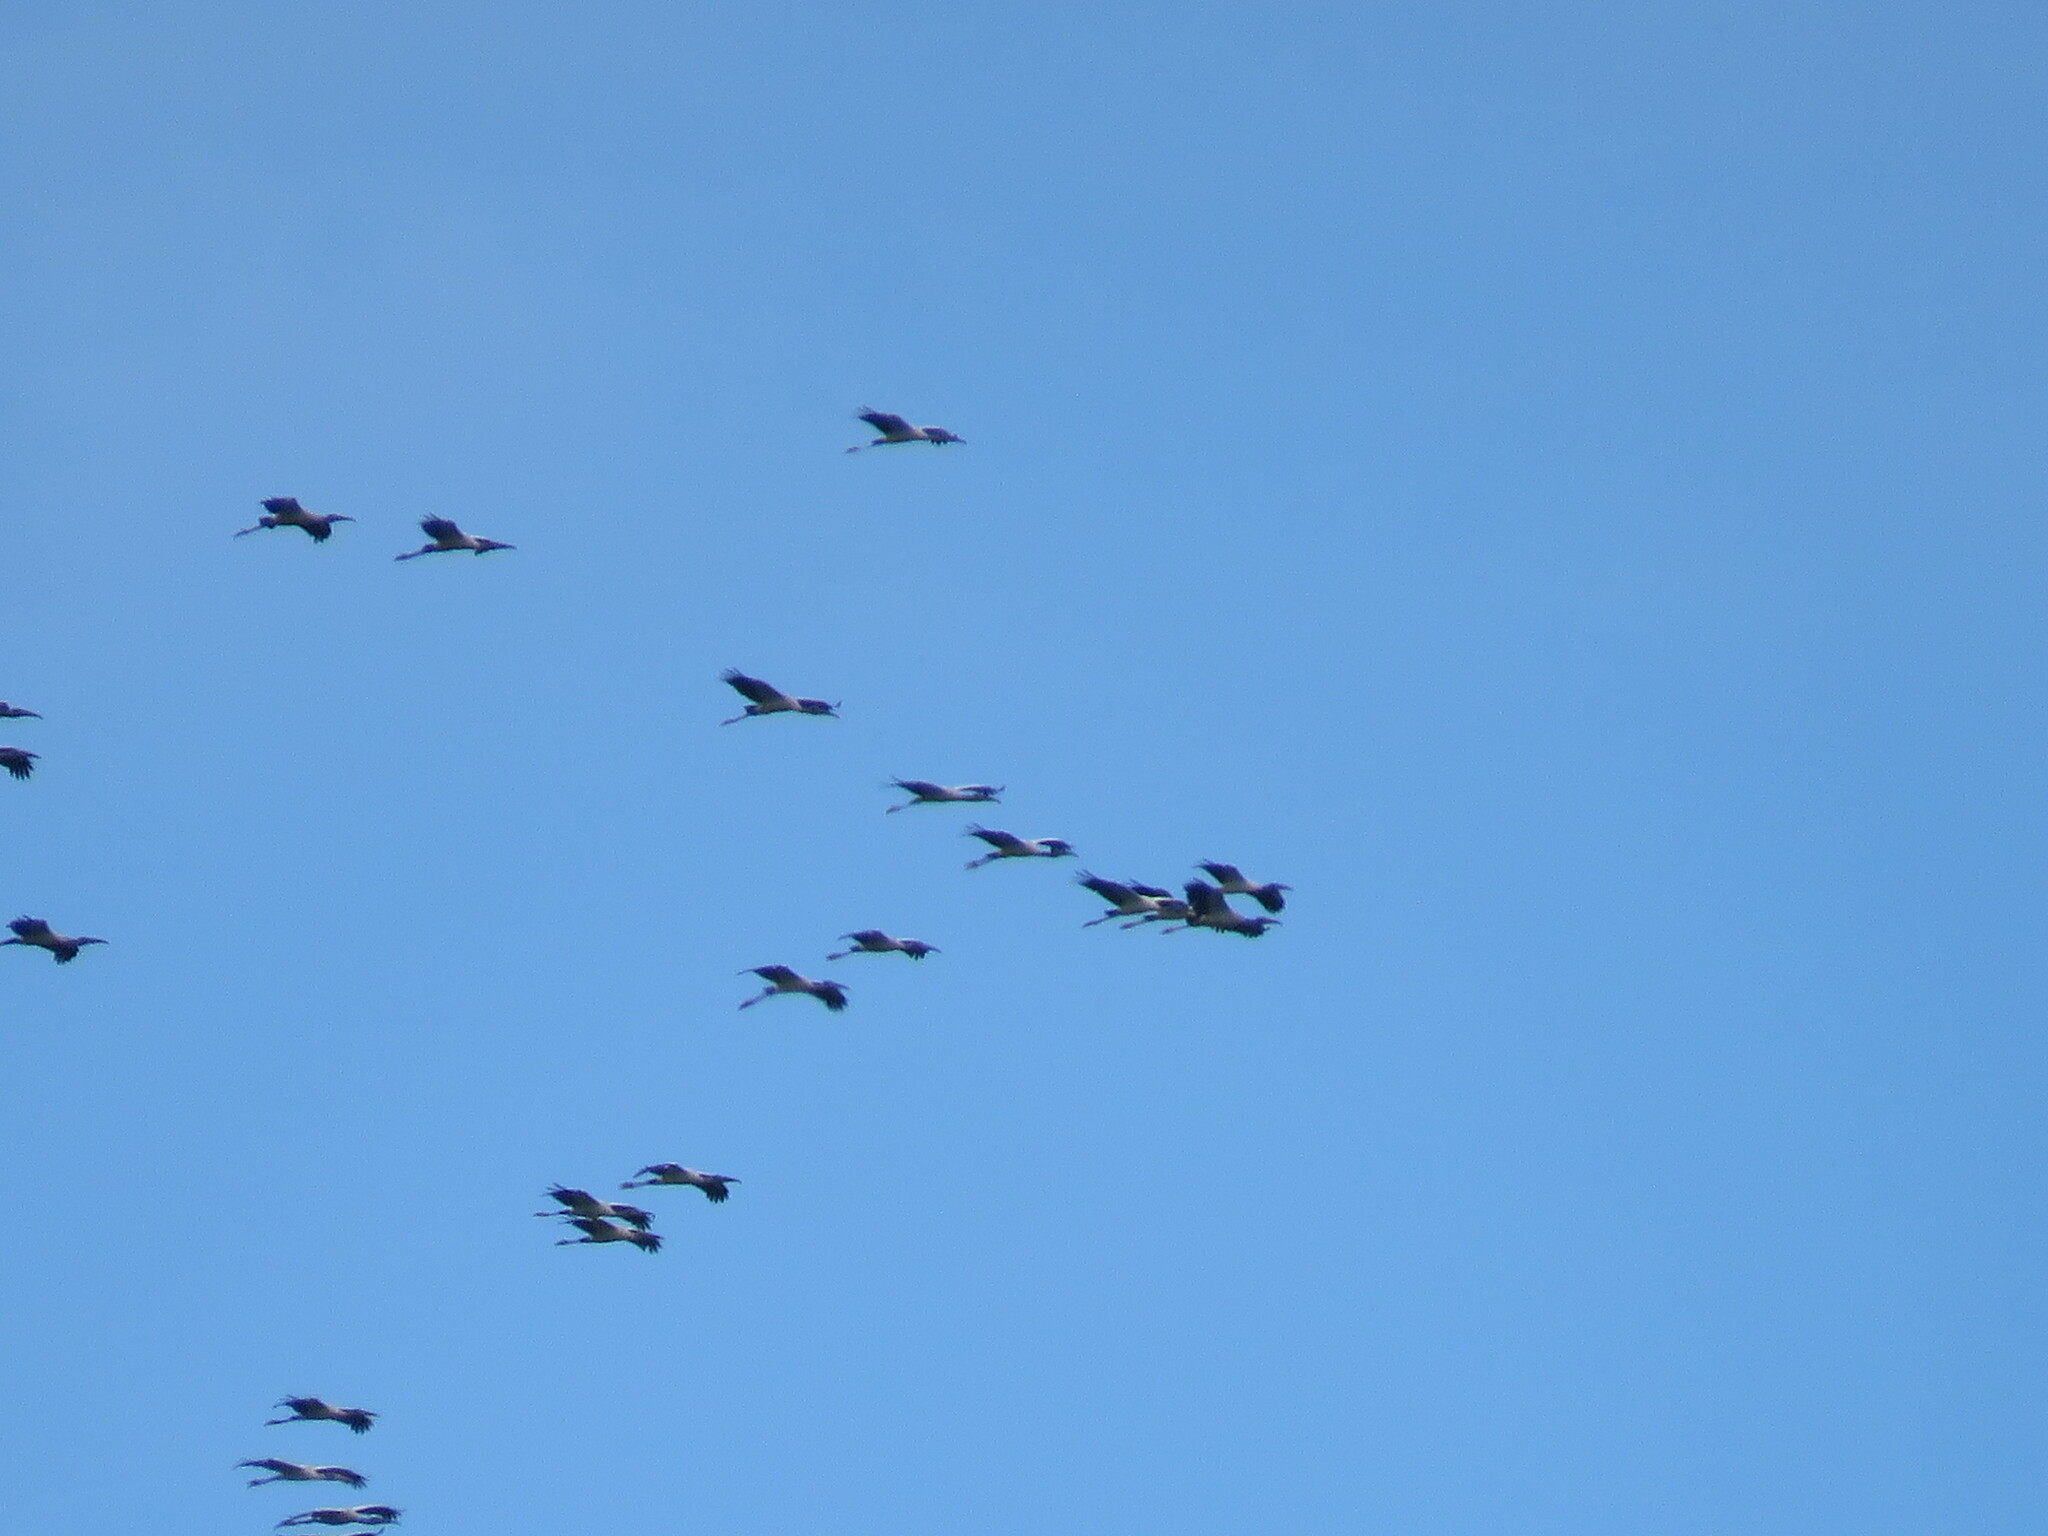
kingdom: Animalia
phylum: Chordata
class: Aves
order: Ciconiiformes
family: Ciconiidae
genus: Mycteria
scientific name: Mycteria americana
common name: Wood stork
